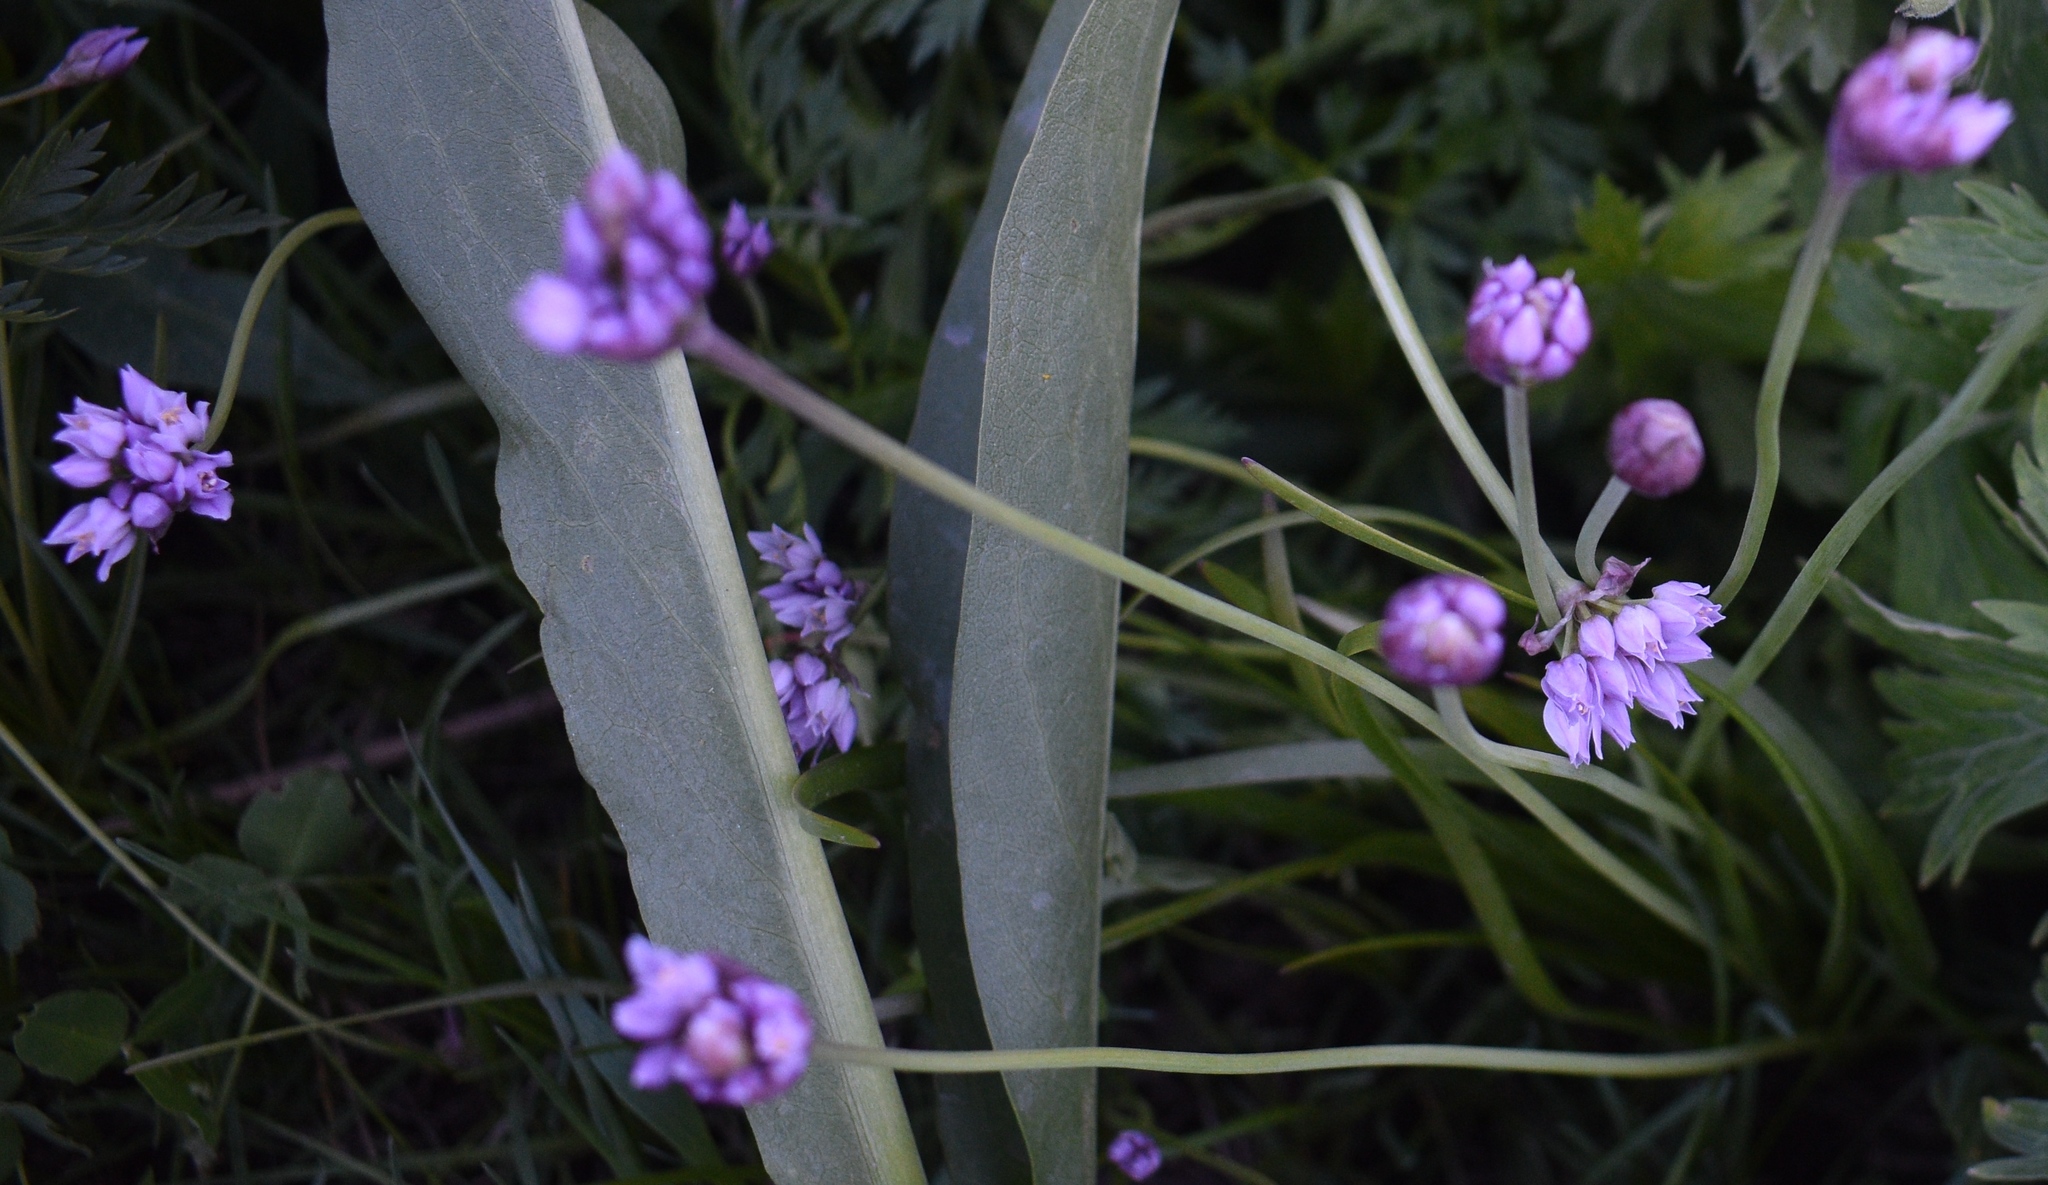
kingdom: Plantae
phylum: Tracheophyta
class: Liliopsida
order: Asparagales
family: Amaryllidaceae
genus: Allium
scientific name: Allium geyeri
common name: Geyer's onion
